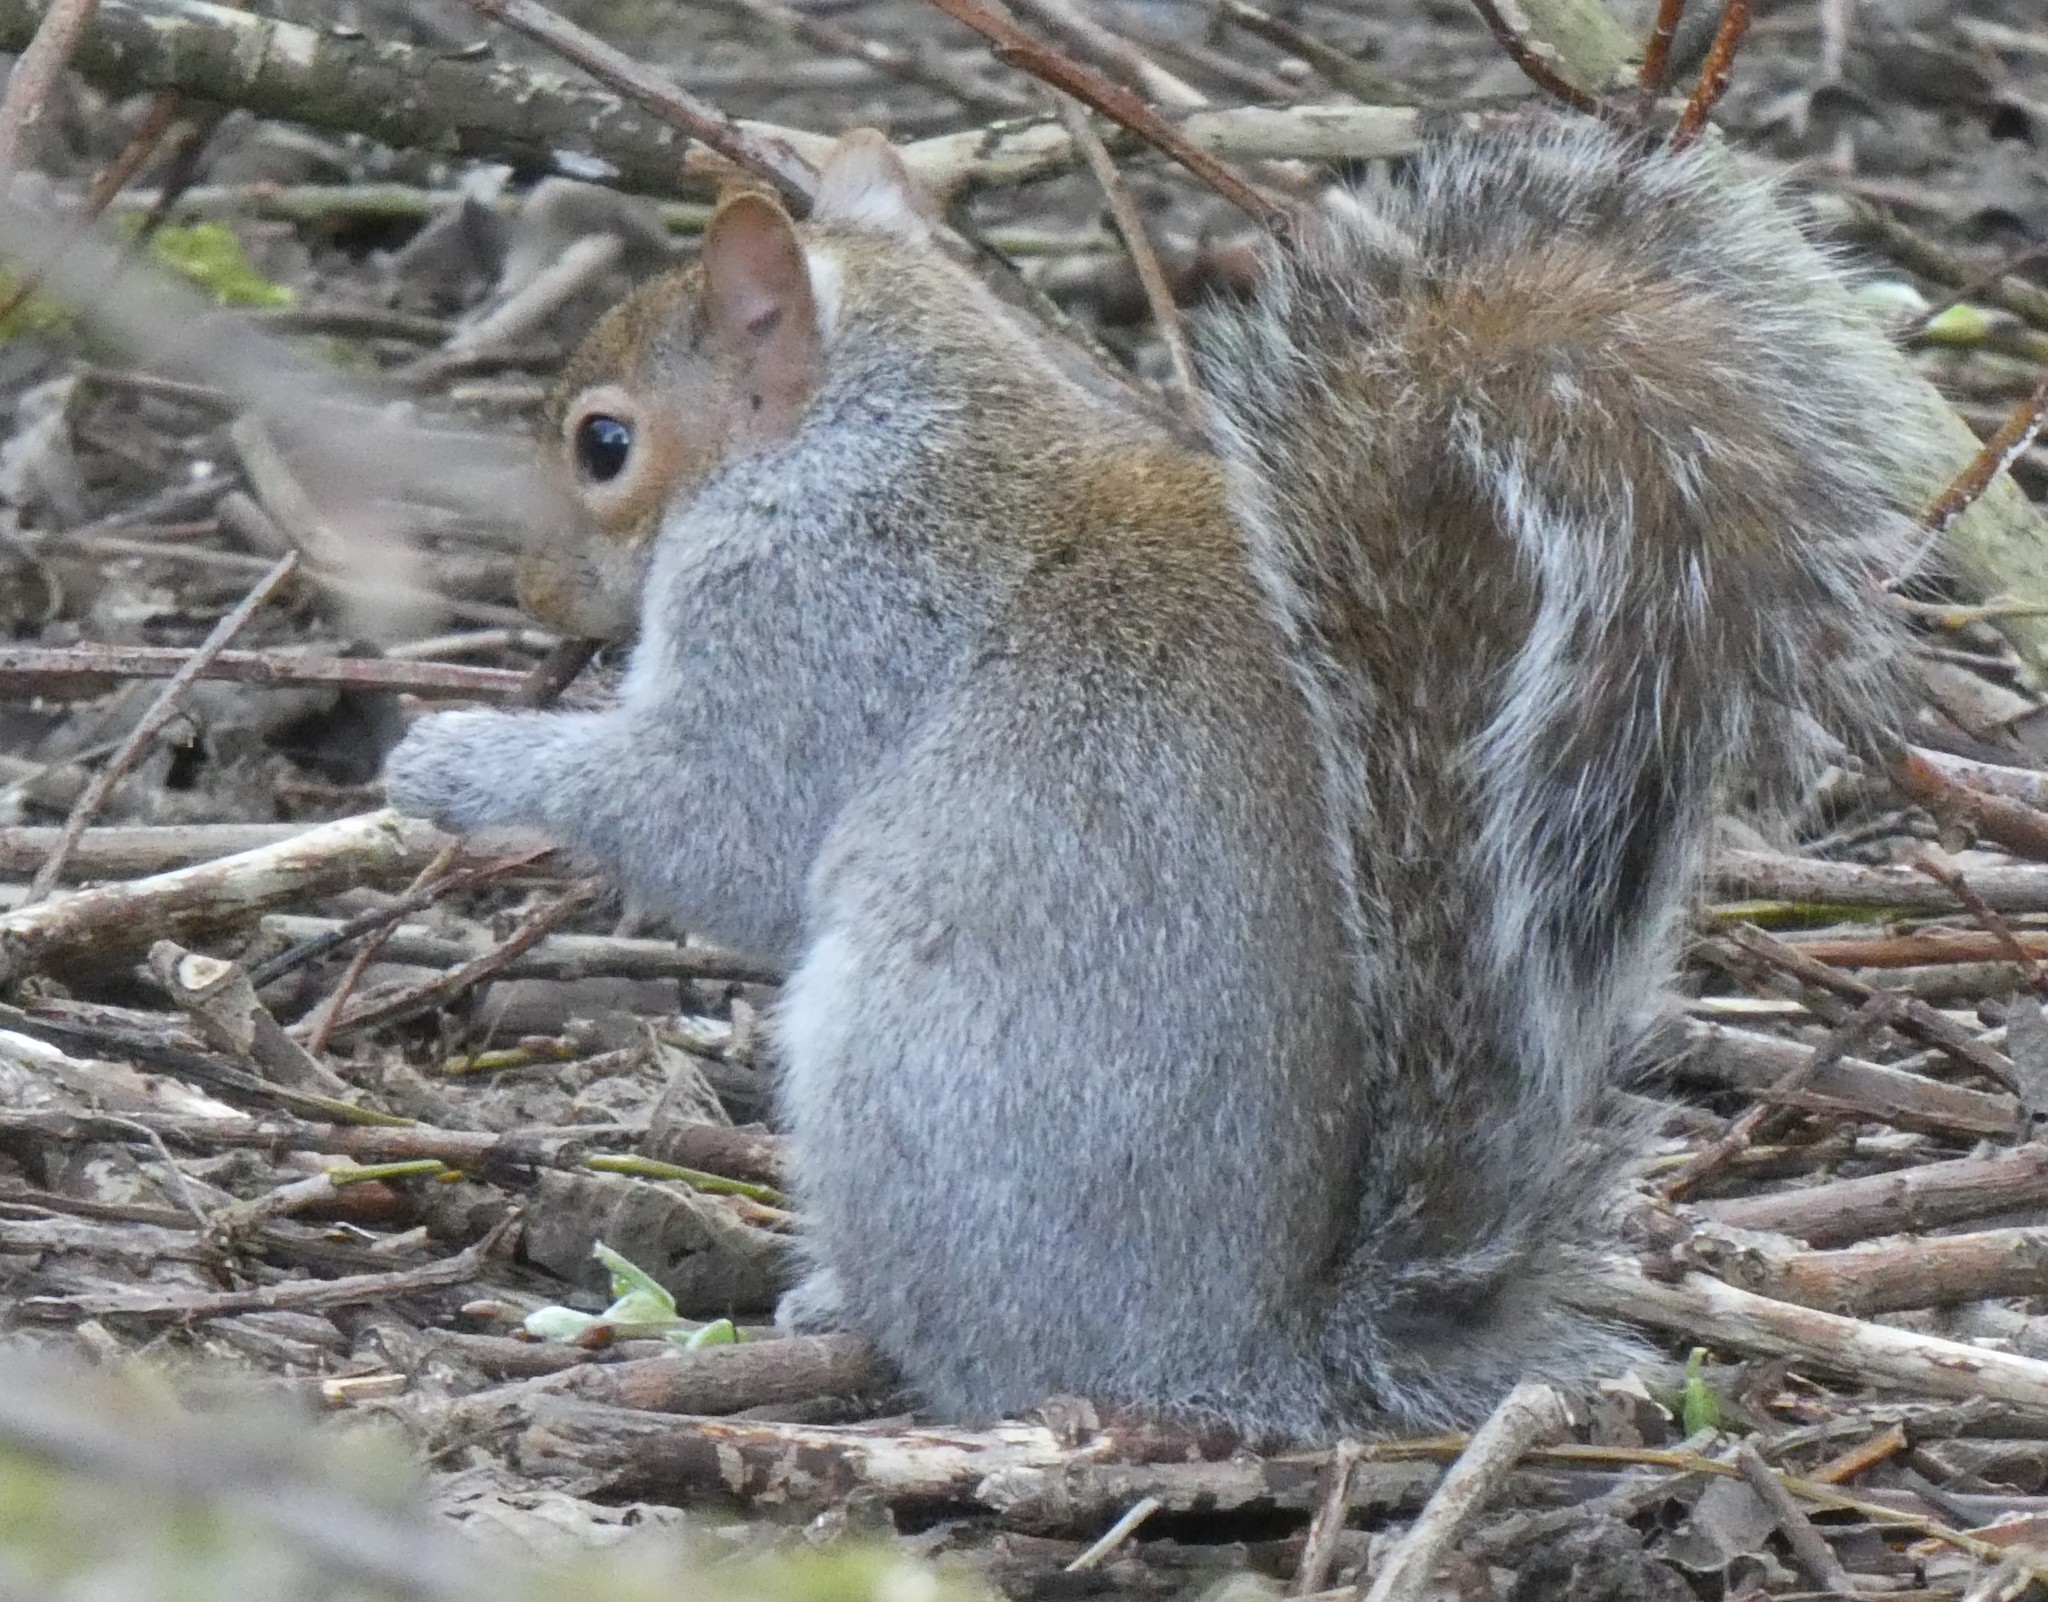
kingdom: Animalia
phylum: Chordata
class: Mammalia
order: Rodentia
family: Sciuridae
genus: Sciurus
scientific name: Sciurus carolinensis
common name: Eastern gray squirrel
